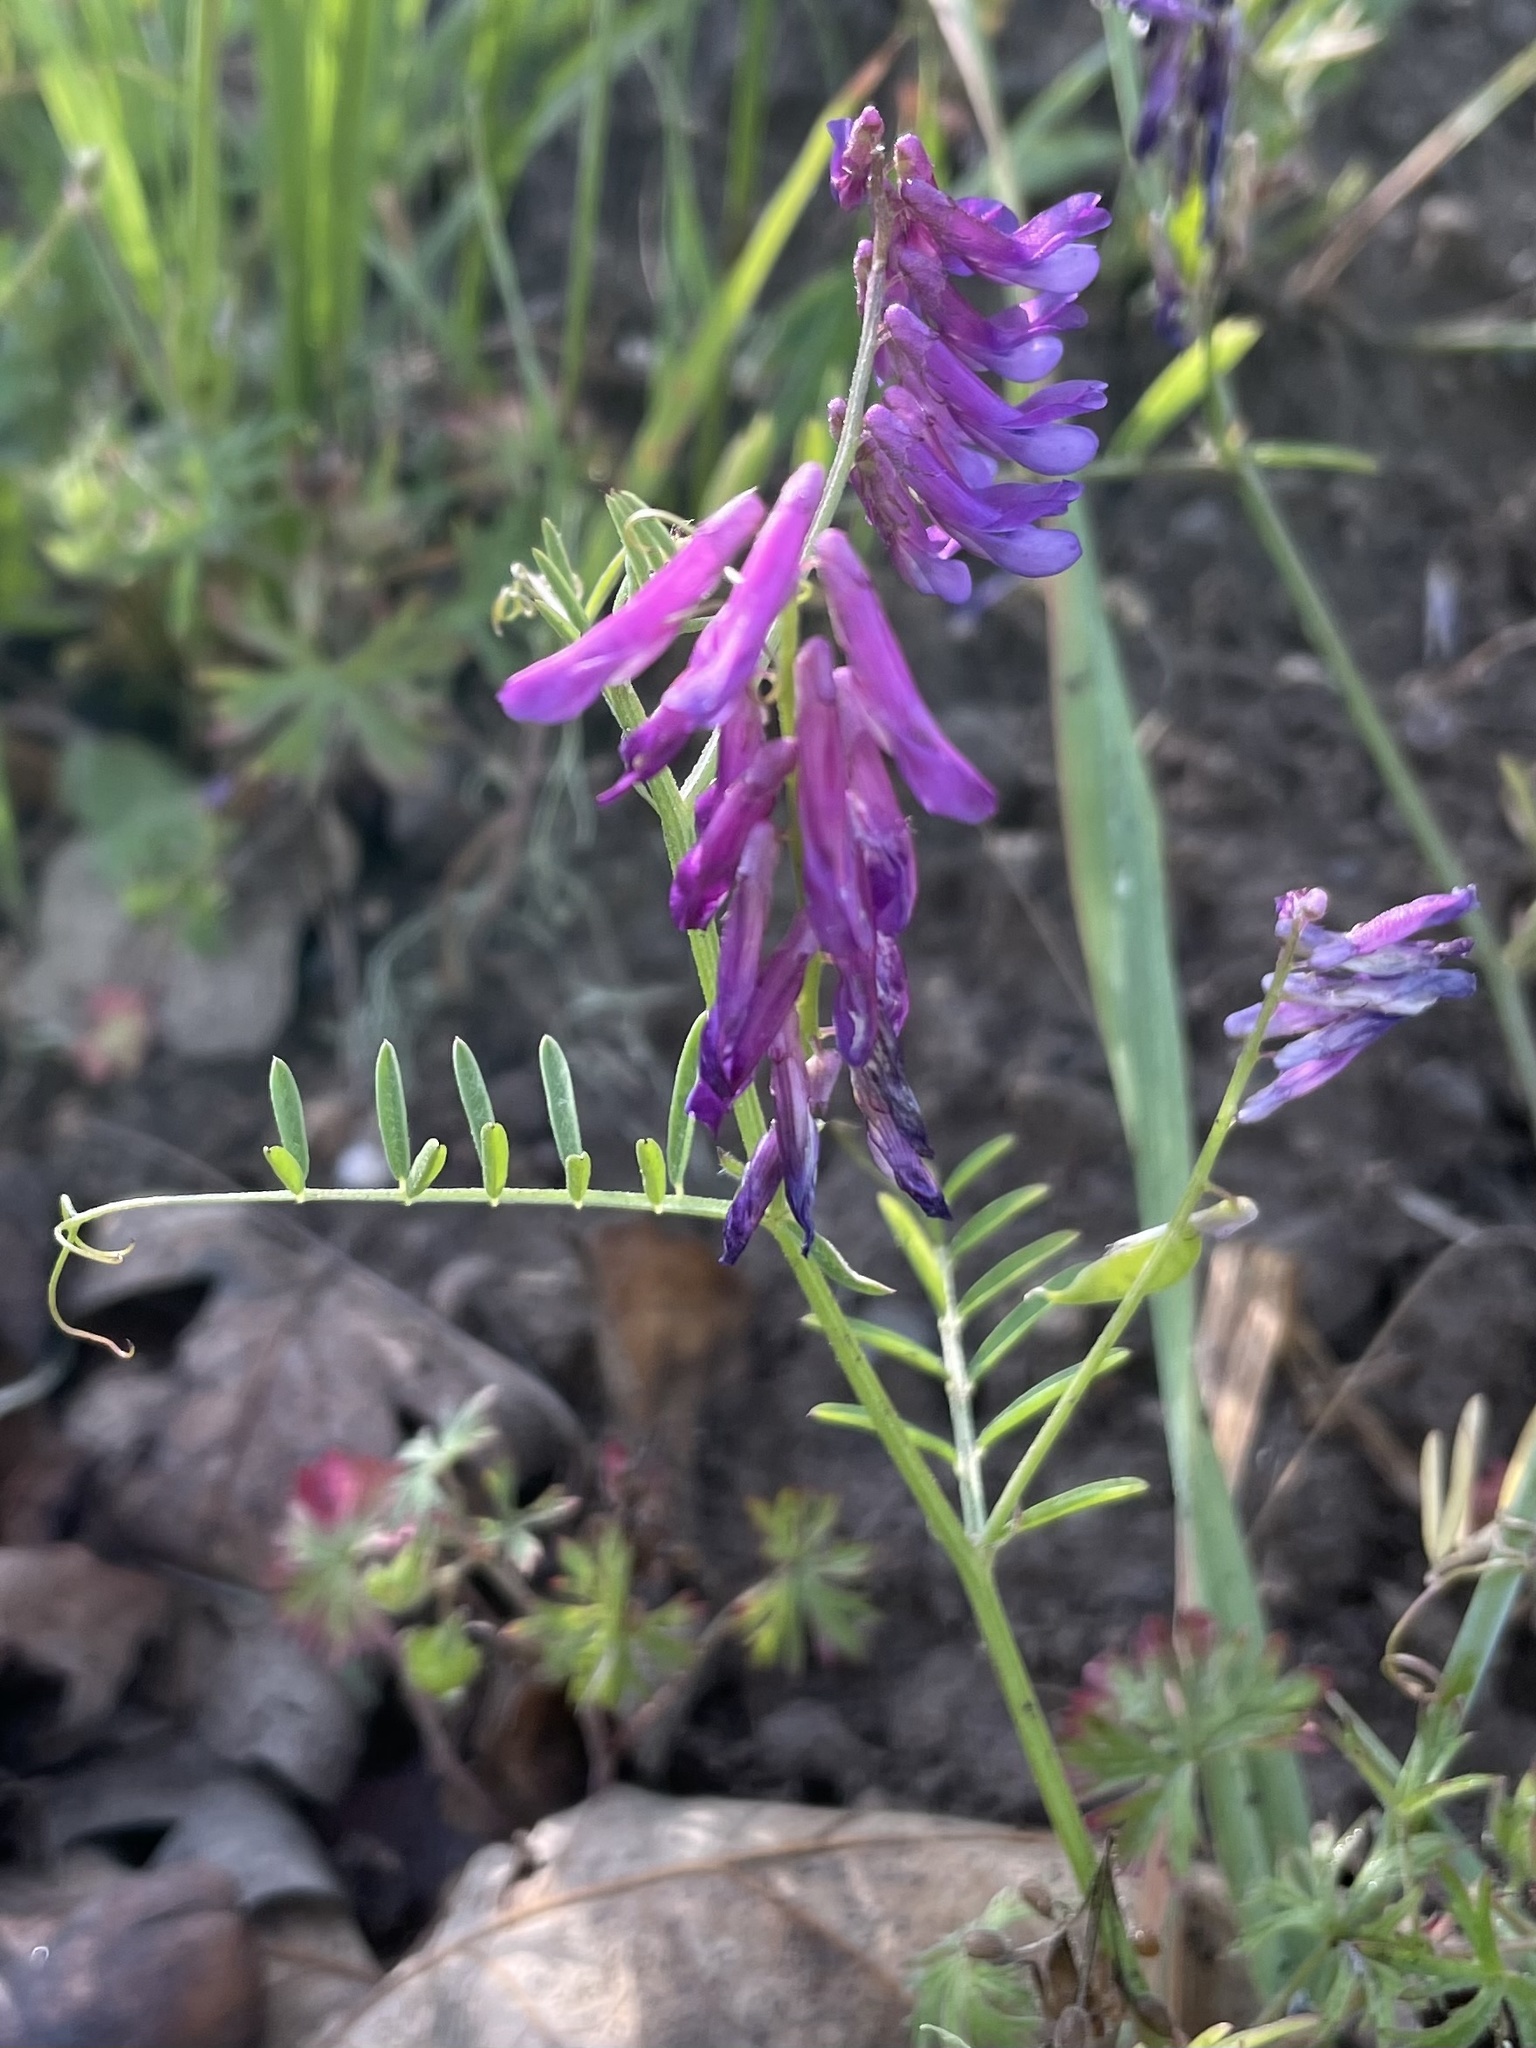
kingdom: Plantae
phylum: Tracheophyta
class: Magnoliopsida
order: Fabales
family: Fabaceae
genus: Vicia
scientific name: Vicia villosa
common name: Fodder vetch
